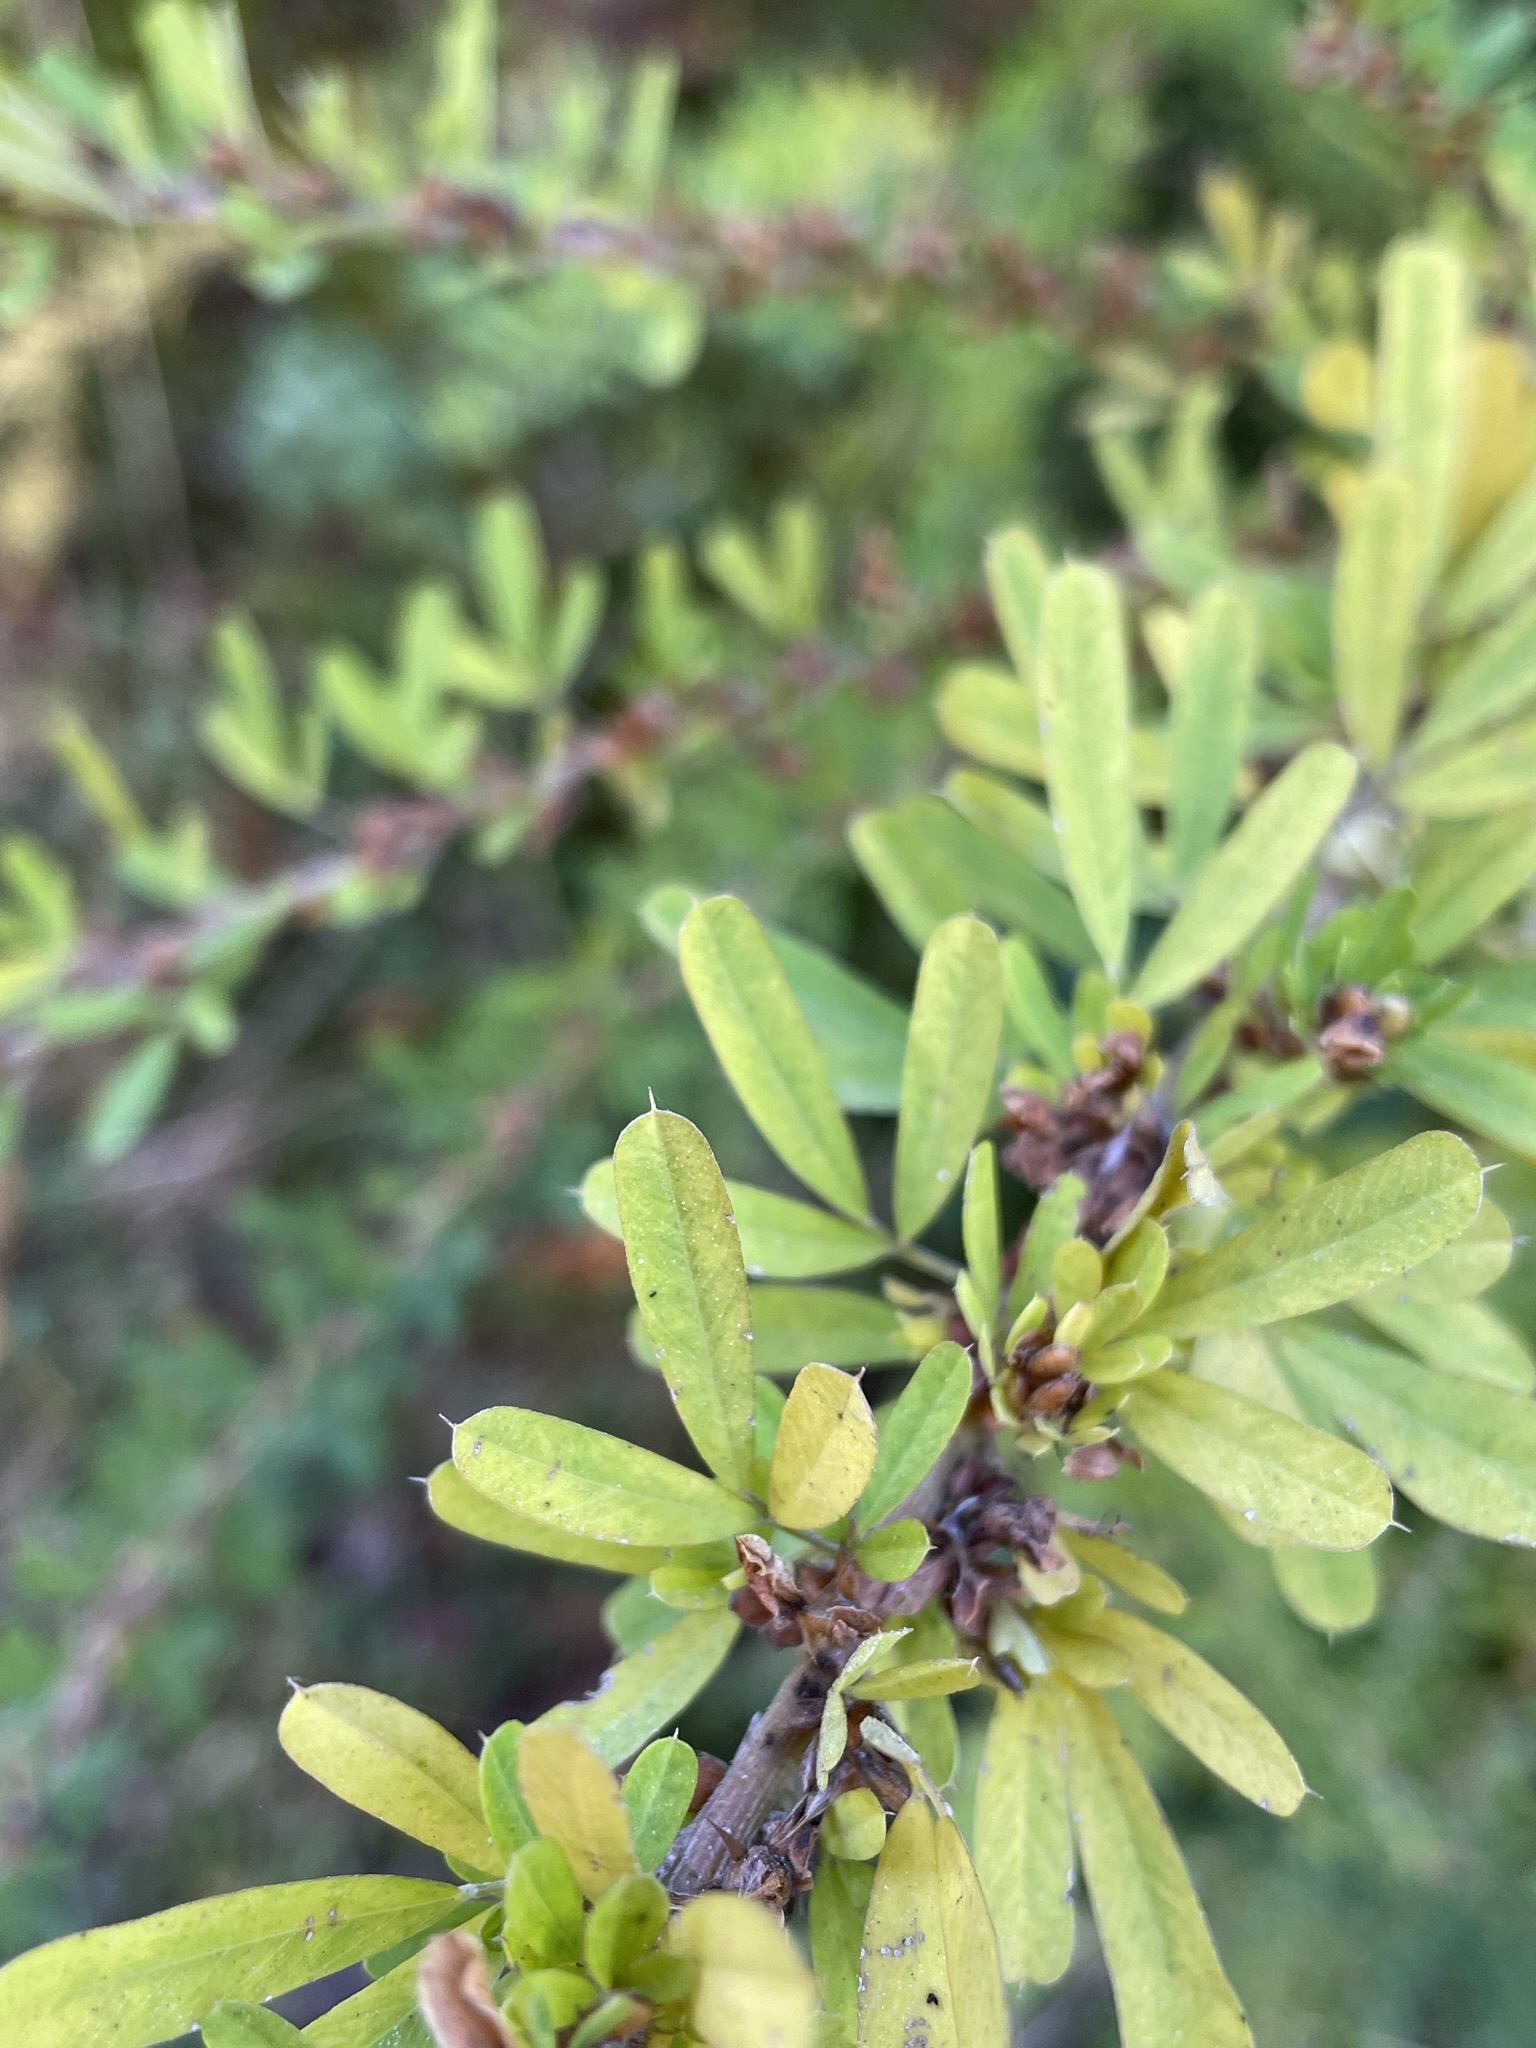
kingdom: Plantae
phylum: Tracheophyta
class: Magnoliopsida
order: Fabales
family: Fabaceae
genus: Lespedeza
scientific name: Lespedeza cuneata
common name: Chinese bush-clover
